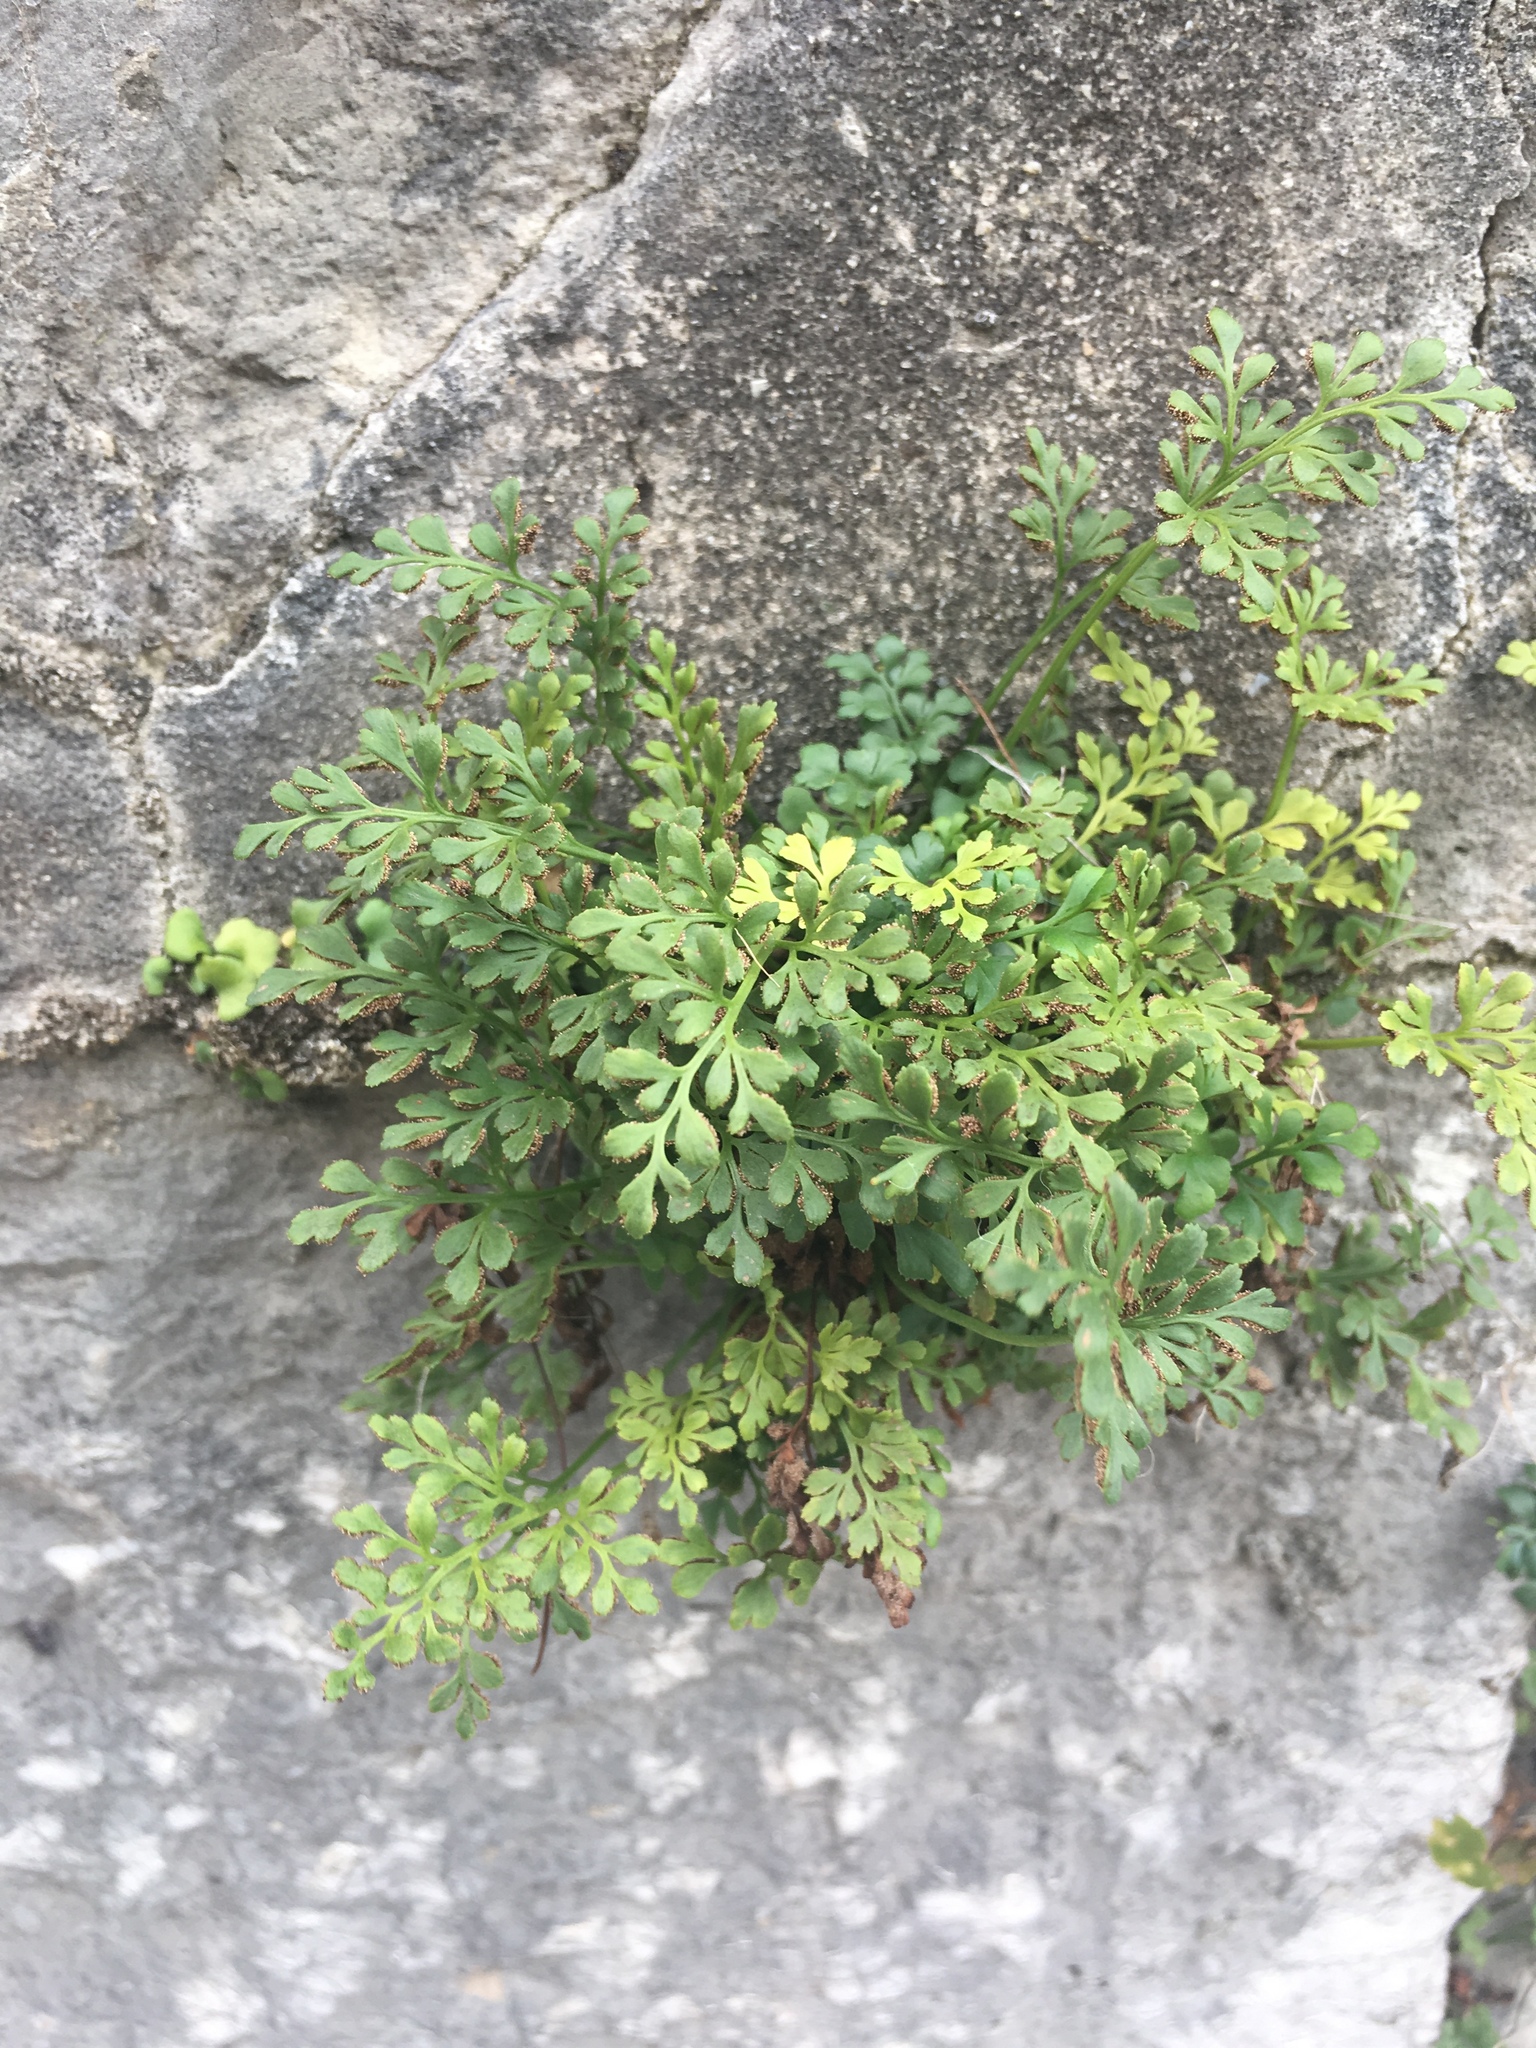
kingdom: Plantae
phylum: Tracheophyta
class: Polypodiopsida
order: Polypodiales
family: Aspleniaceae
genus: Asplenium
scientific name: Asplenium ruta-muraria
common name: Wall-rue
